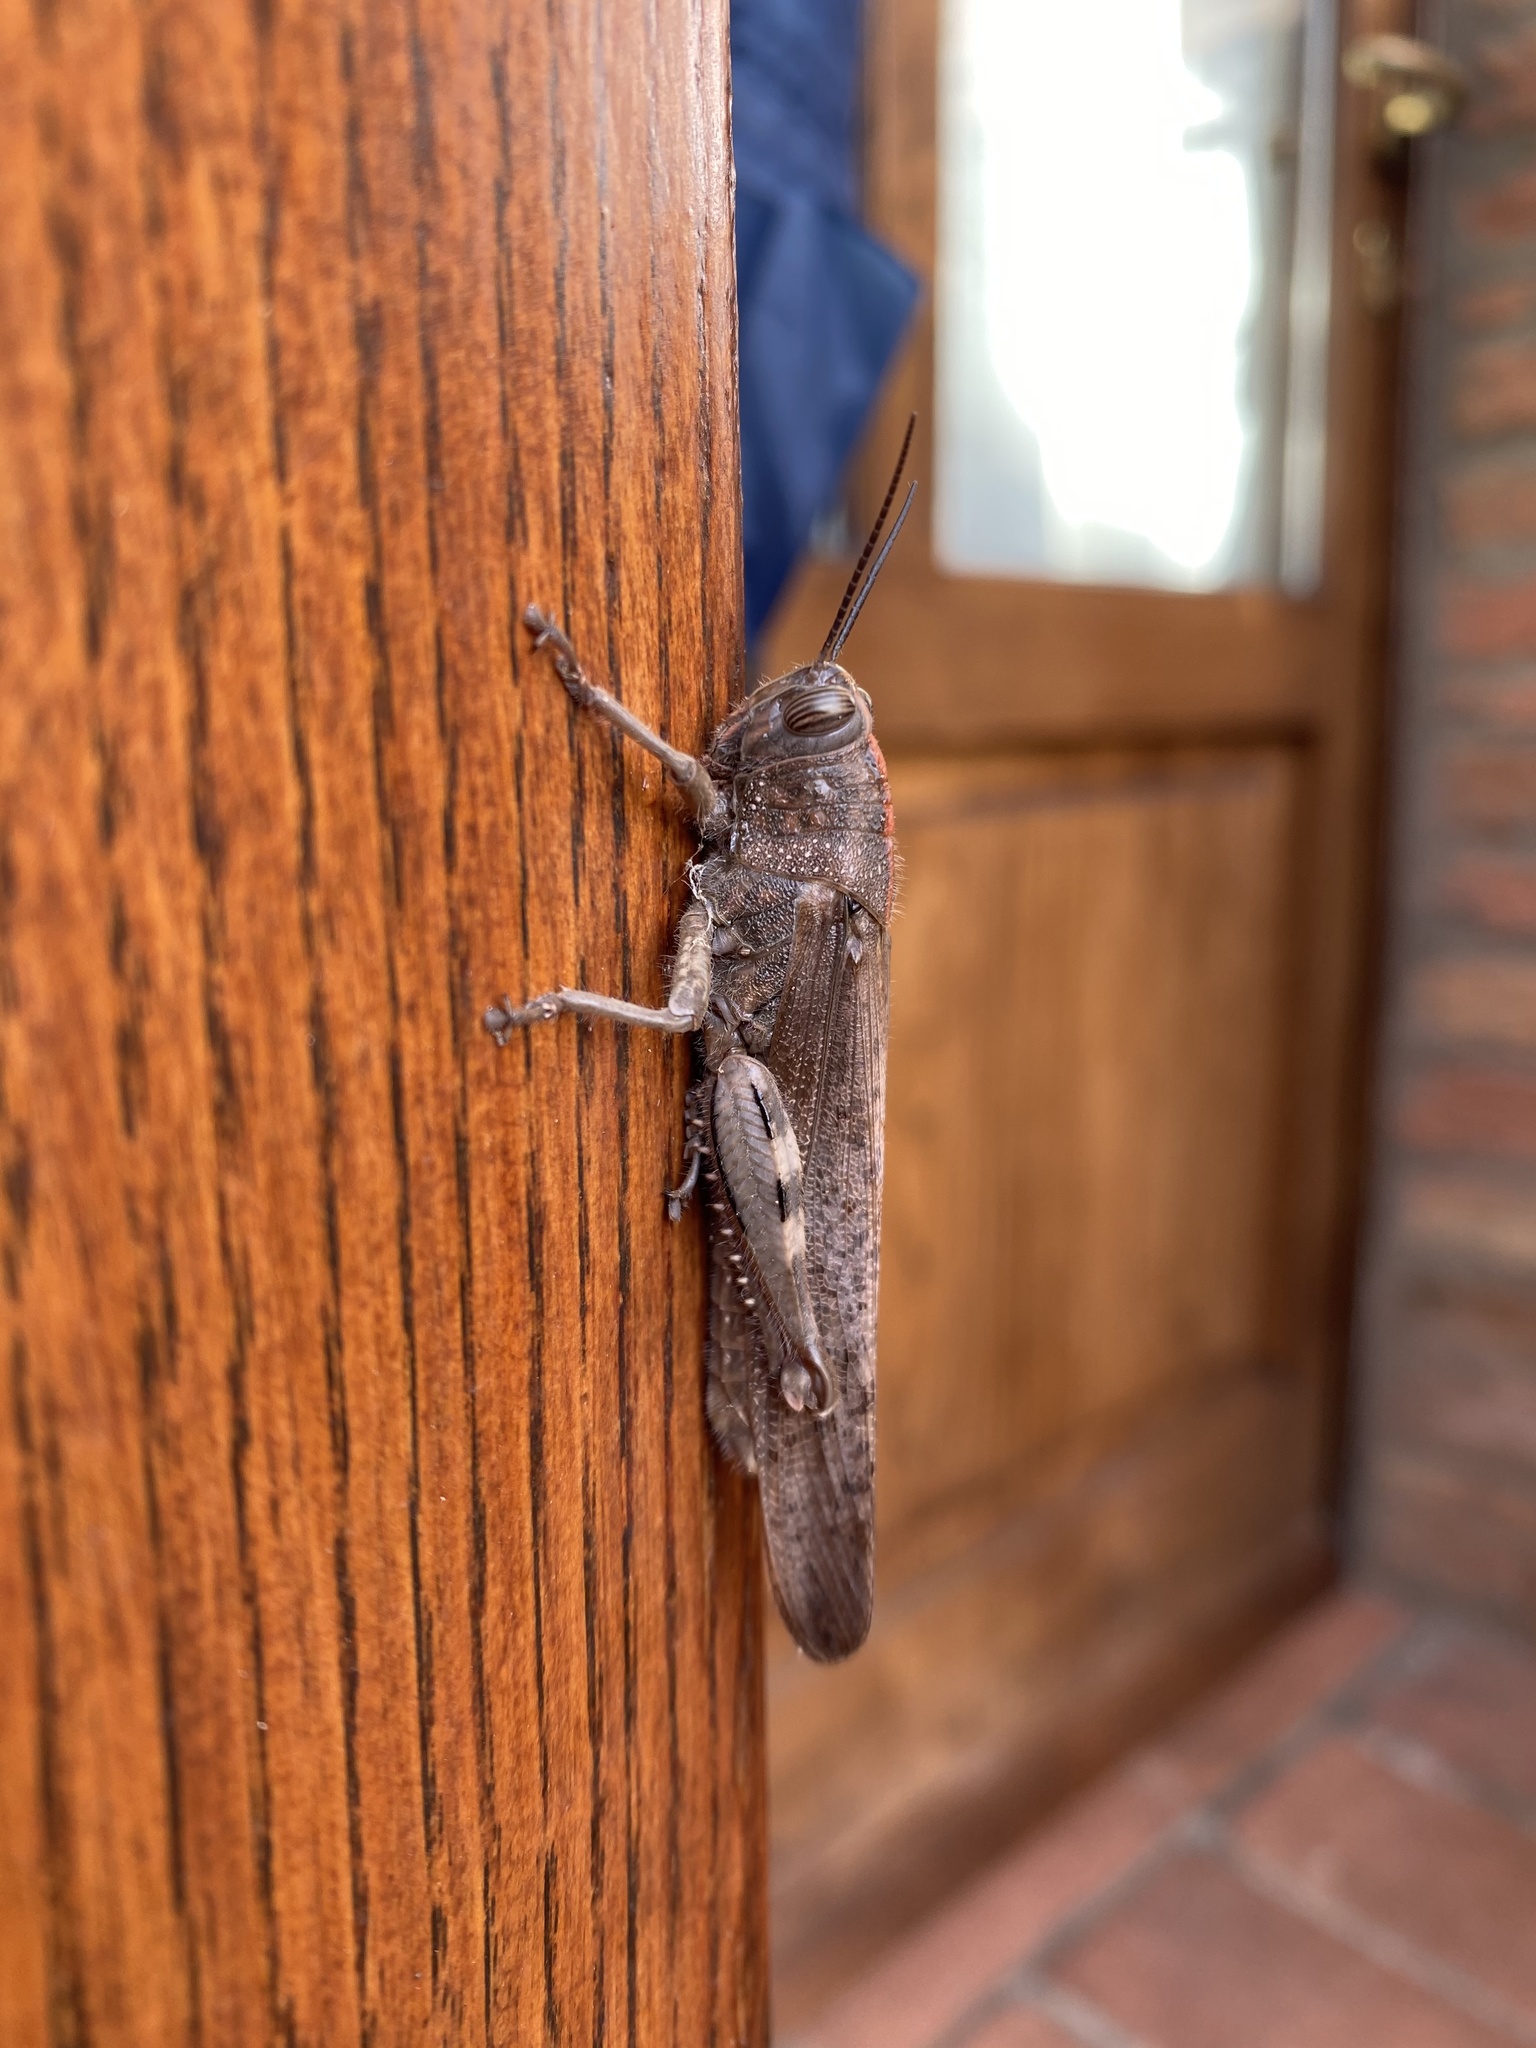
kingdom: Animalia
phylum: Arthropoda
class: Insecta
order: Orthoptera
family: Acrididae
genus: Anacridium
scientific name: Anacridium aegyptium
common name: Egyptian grasshopper
